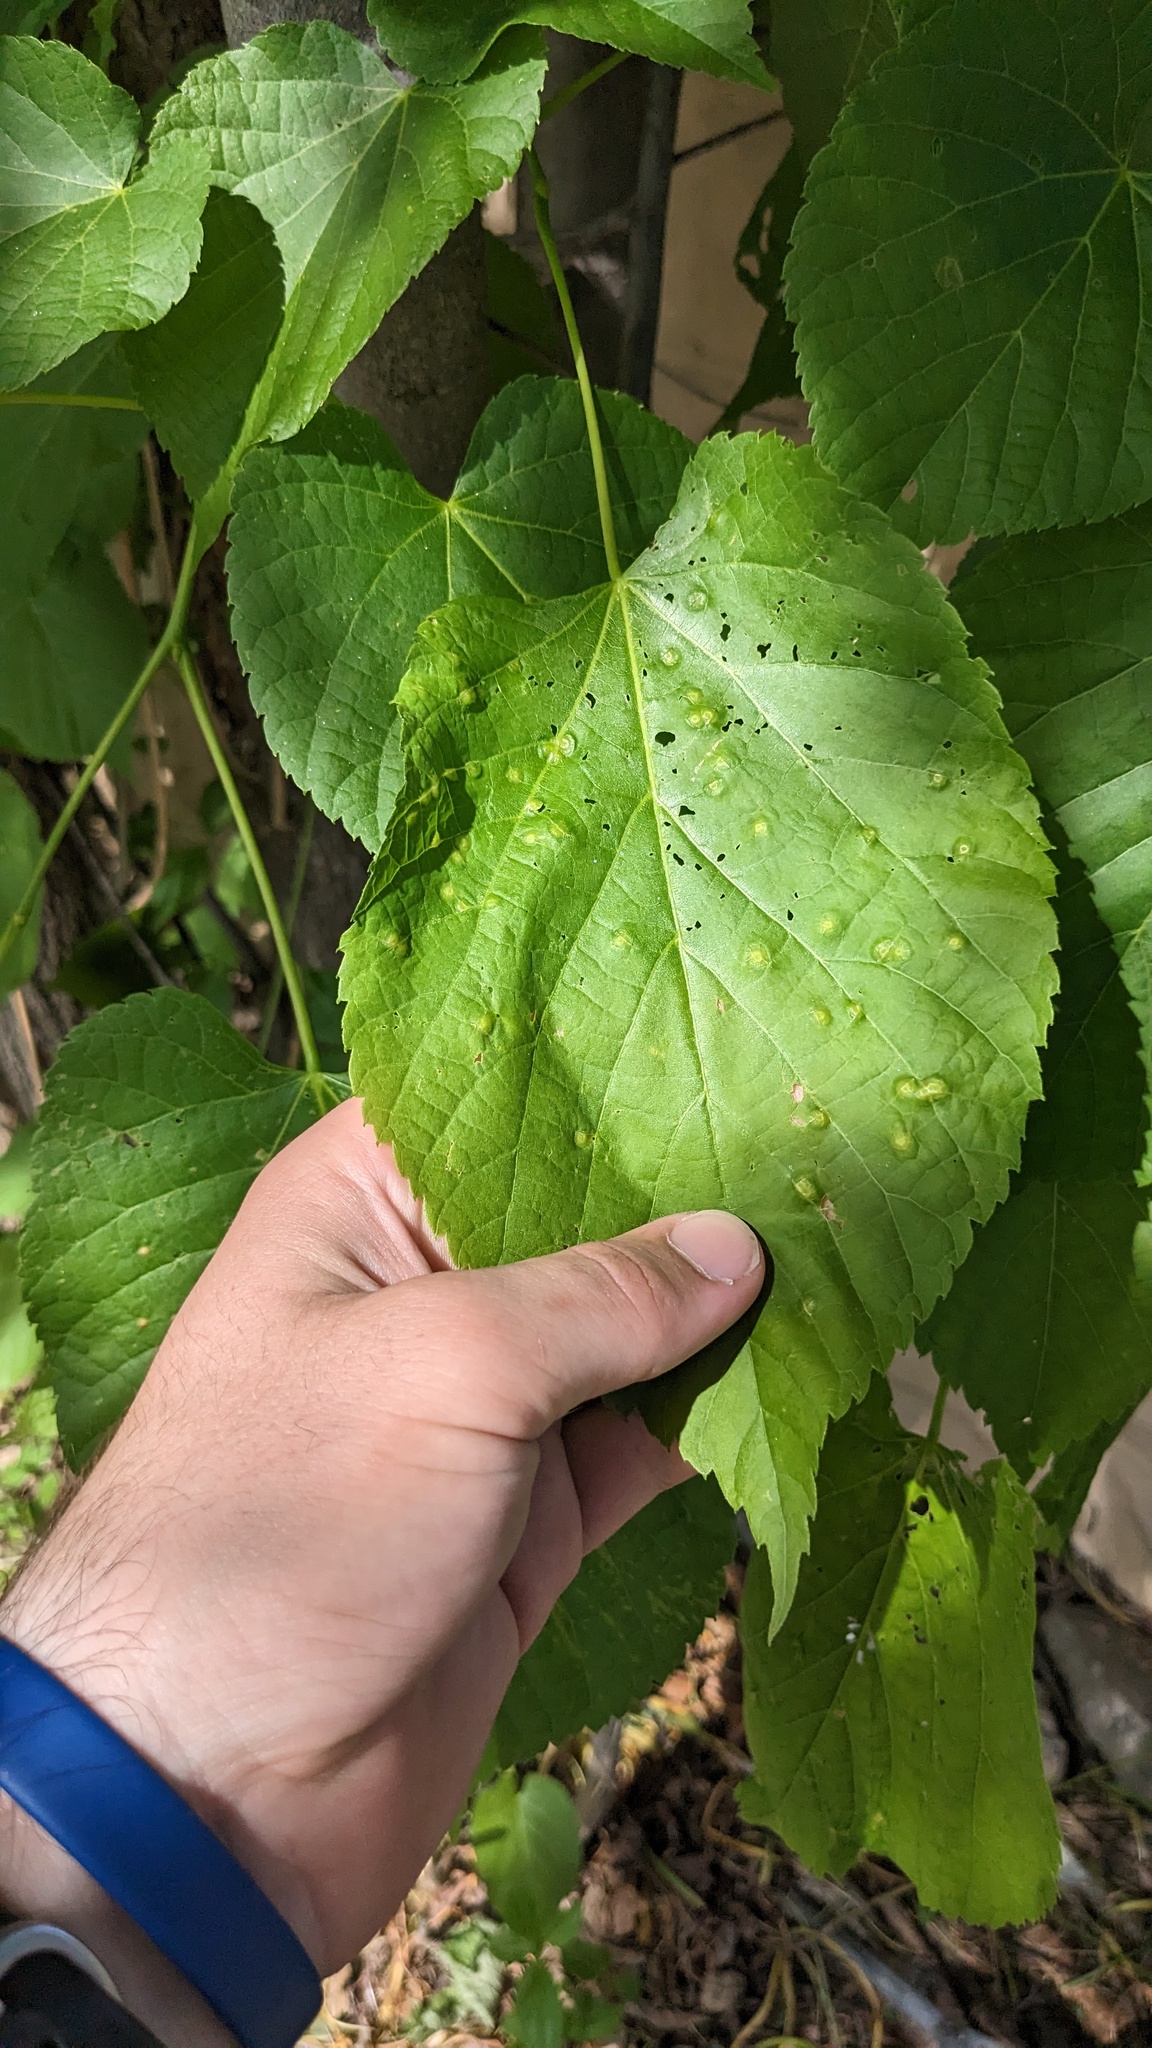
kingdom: Animalia
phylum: Arthropoda
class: Insecta
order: Diptera
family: Cecidomyiidae
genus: Contarinia
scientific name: Contarinia verrucicola
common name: Linden wart gall midge
